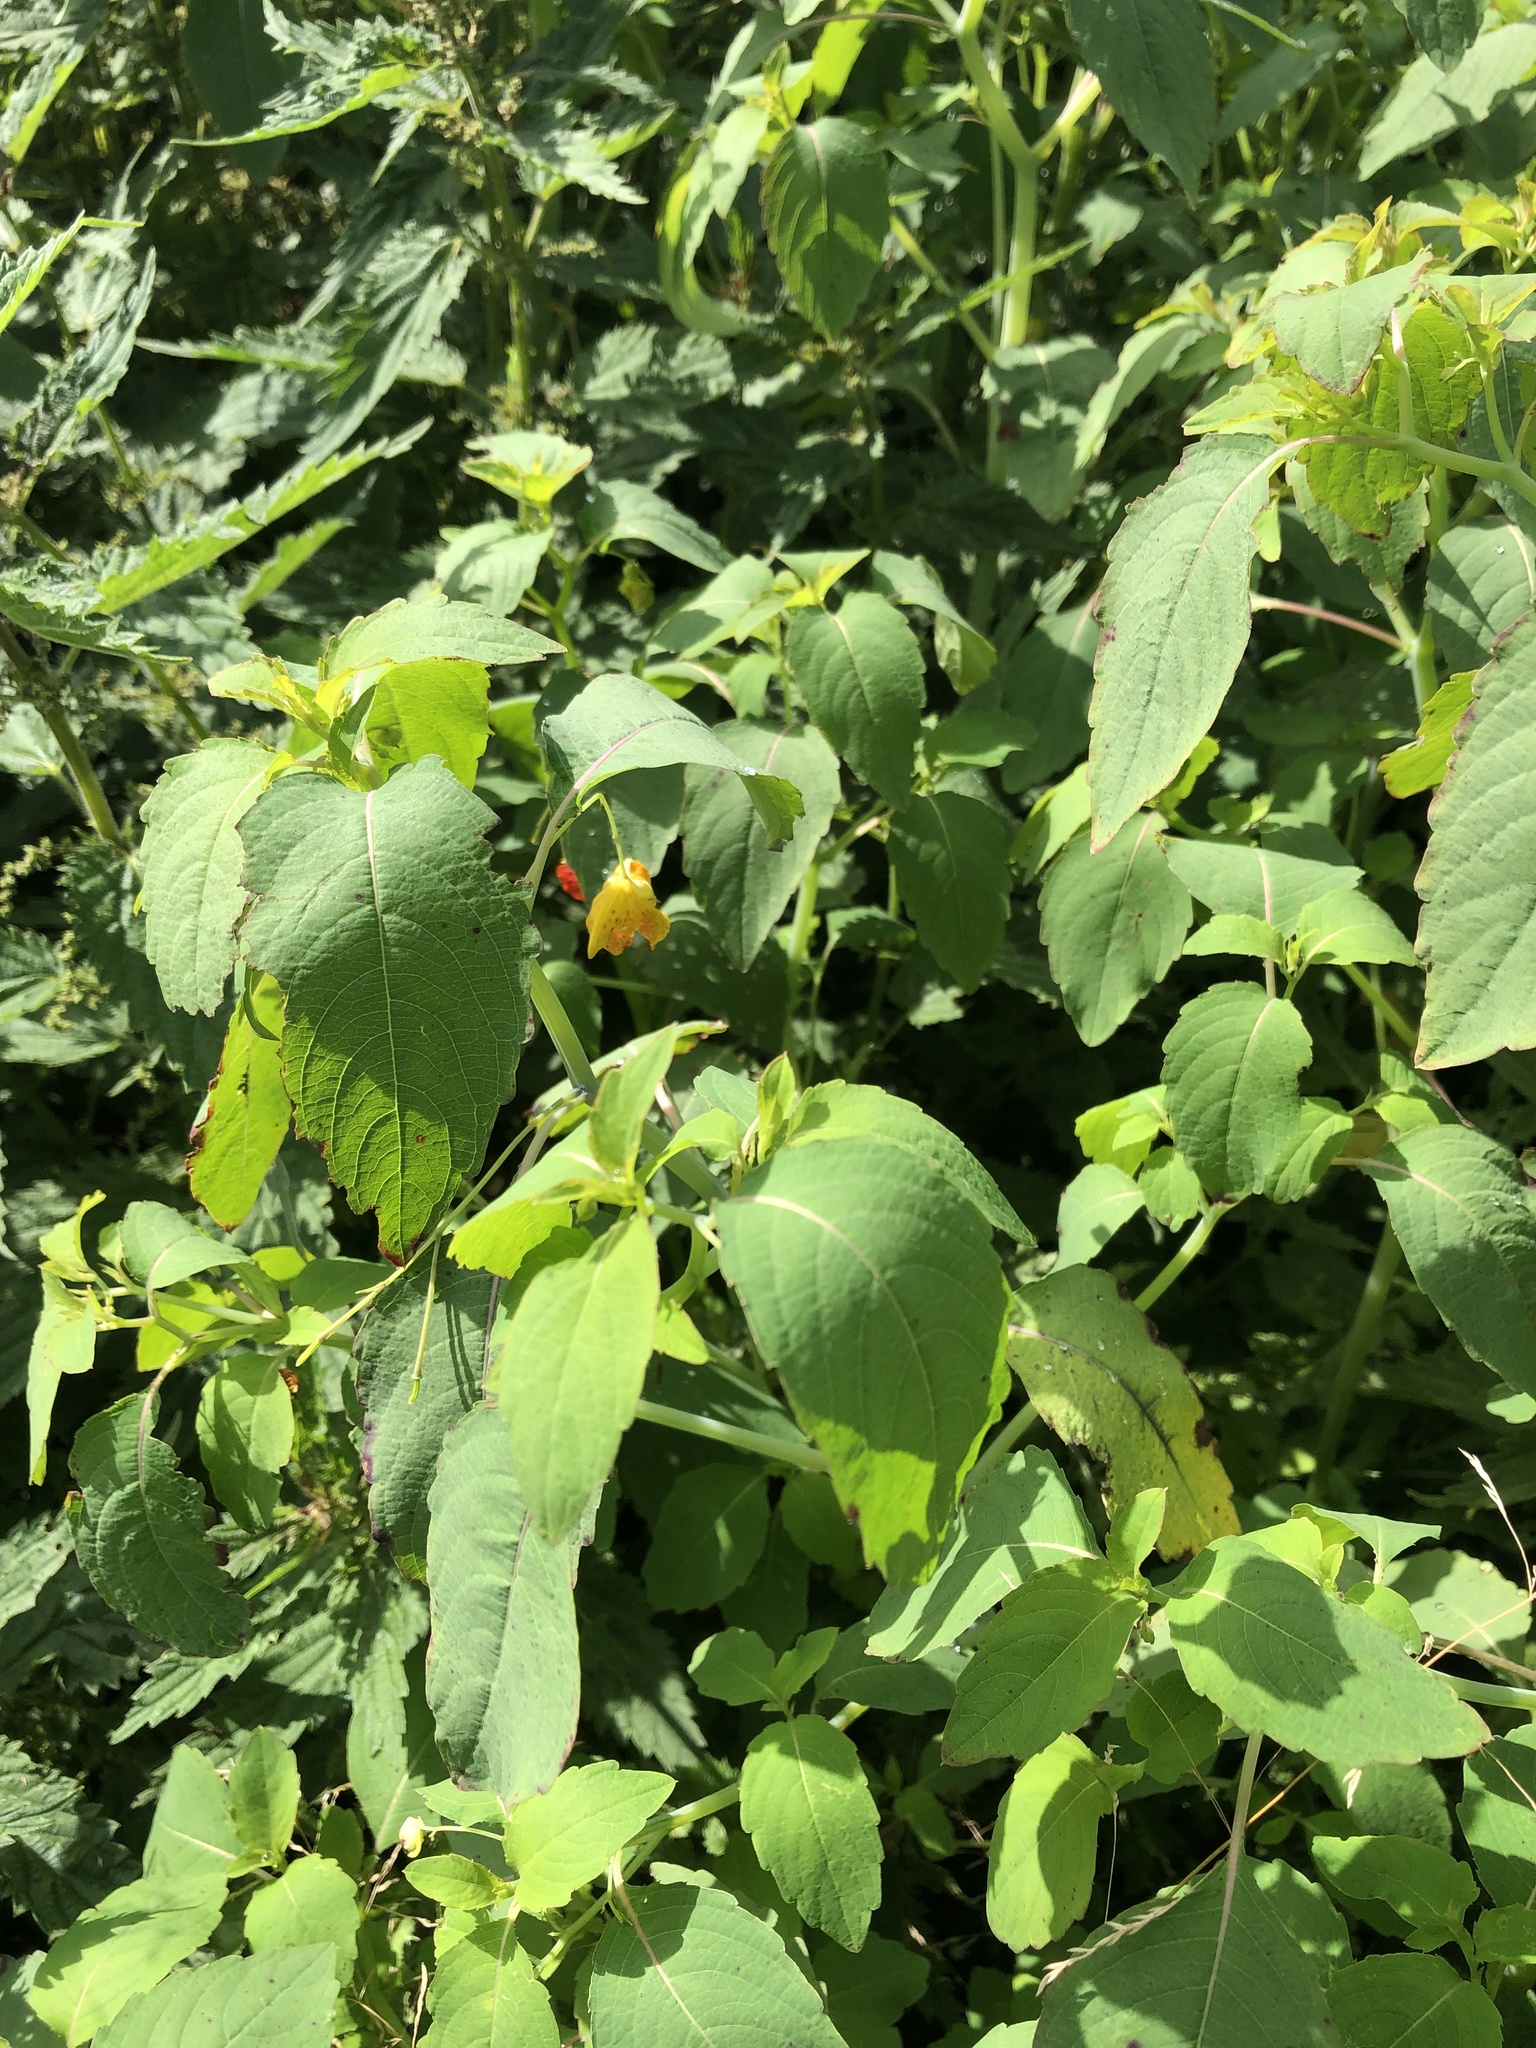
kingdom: Plantae
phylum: Tracheophyta
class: Magnoliopsida
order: Ericales
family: Balsaminaceae
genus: Impatiens
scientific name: Impatiens capensis
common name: Orange balsam
